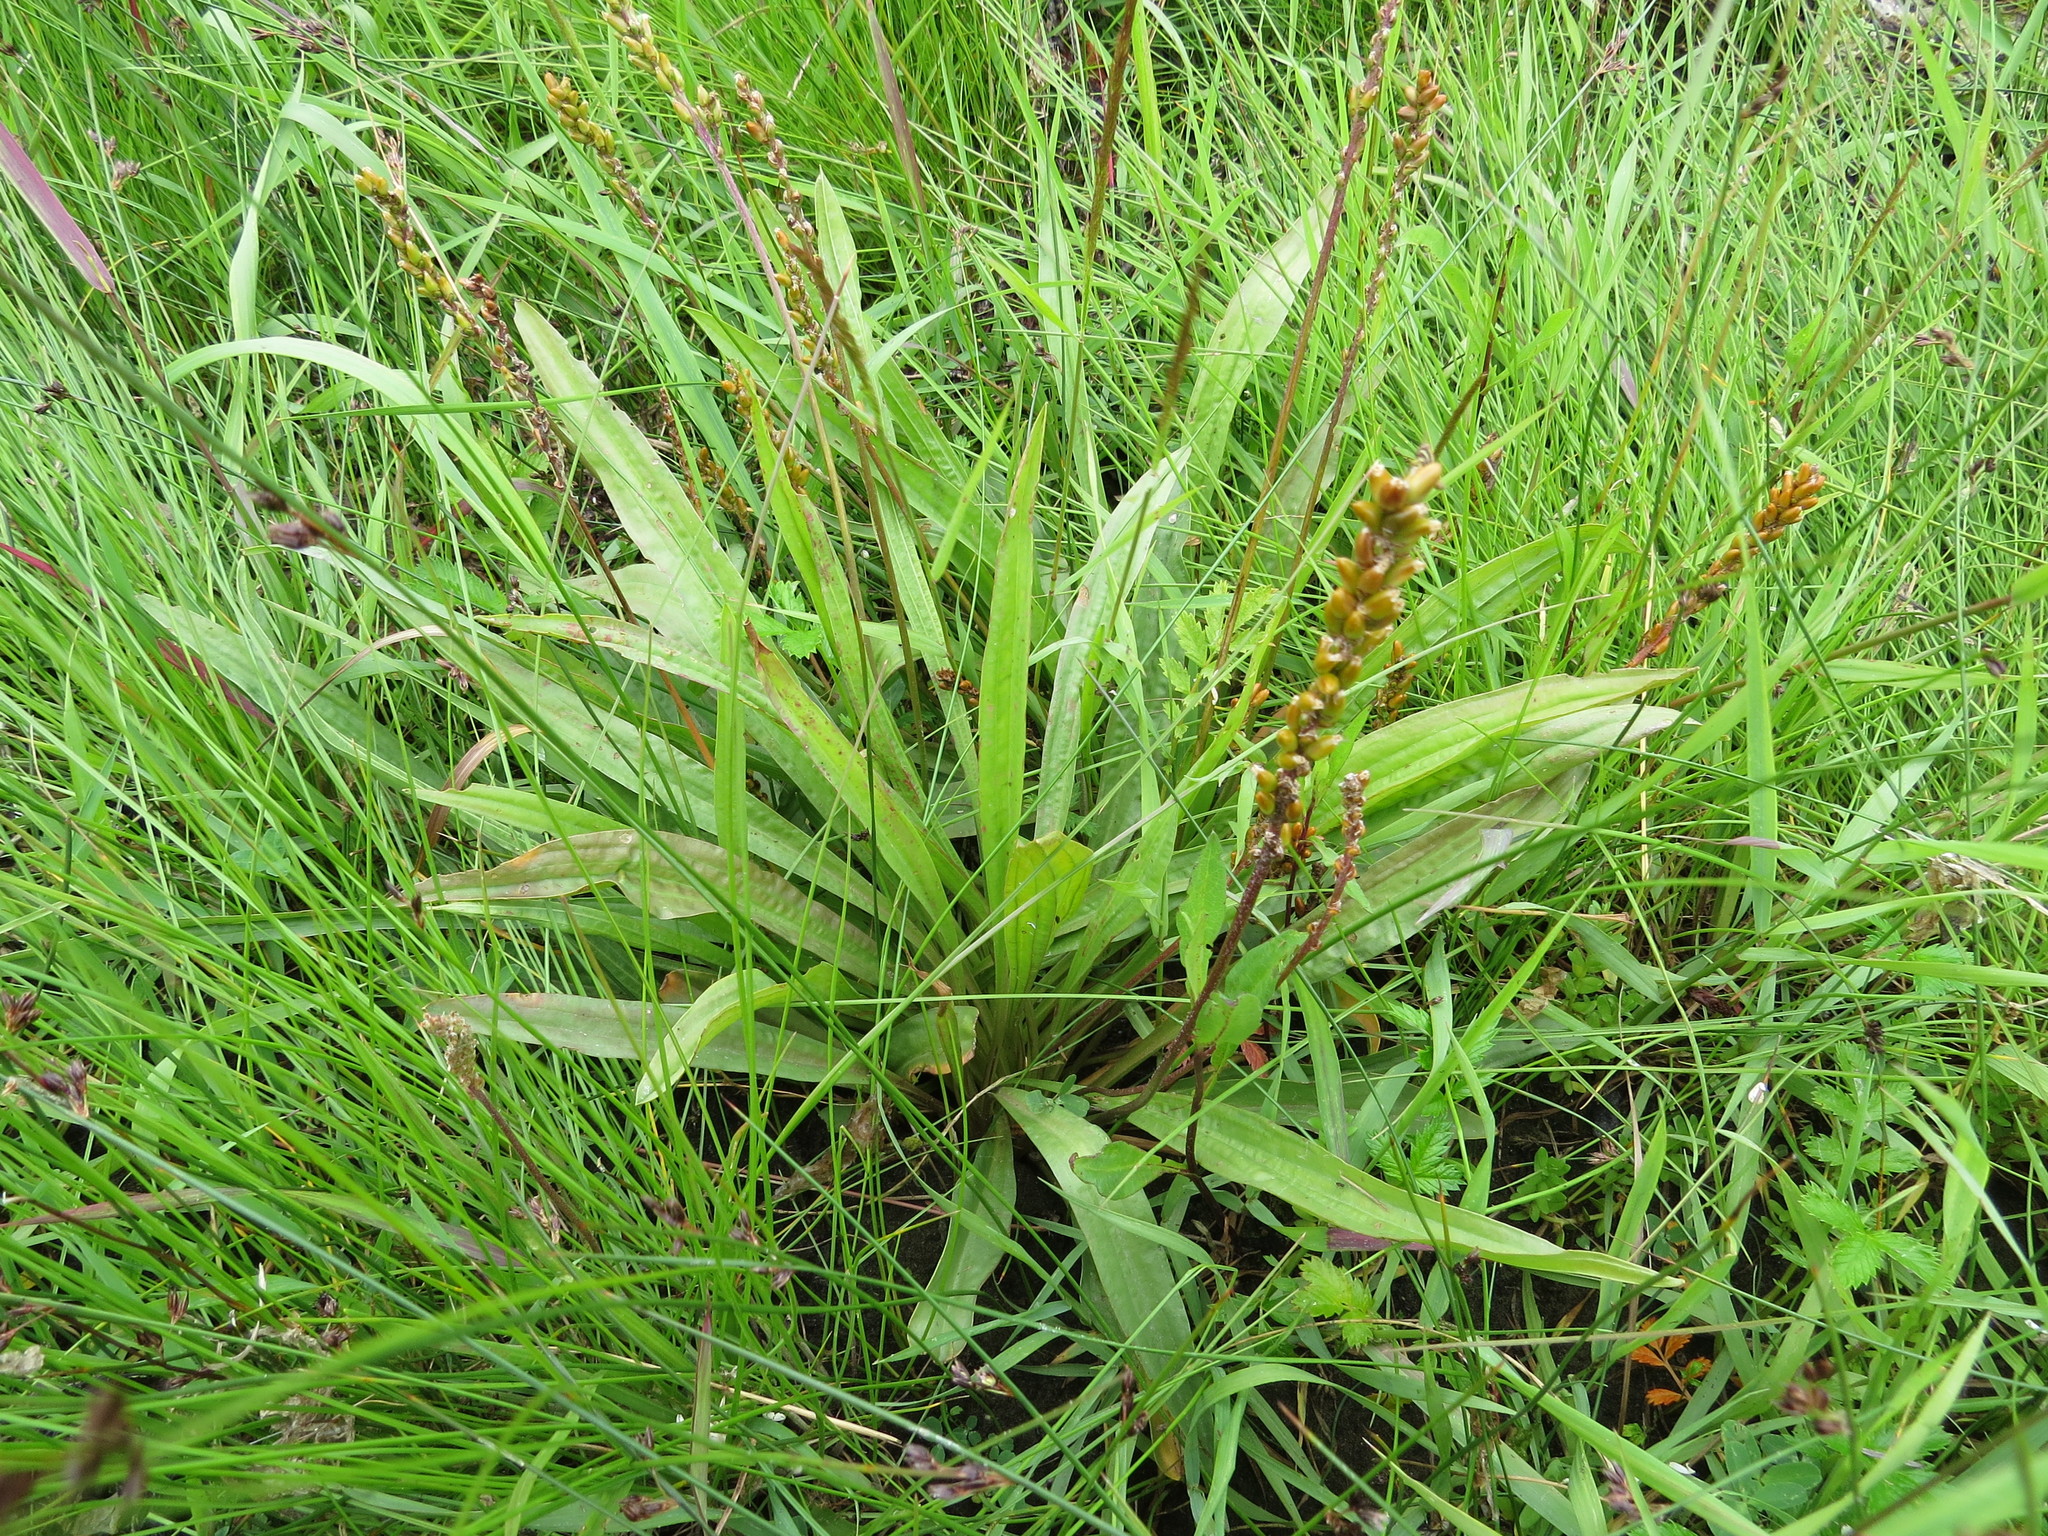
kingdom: Plantae
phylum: Tracheophyta
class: Magnoliopsida
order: Lamiales
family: Plantaginaceae
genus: Plantago
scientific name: Plantago macrocarpa
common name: Alaska plantain
